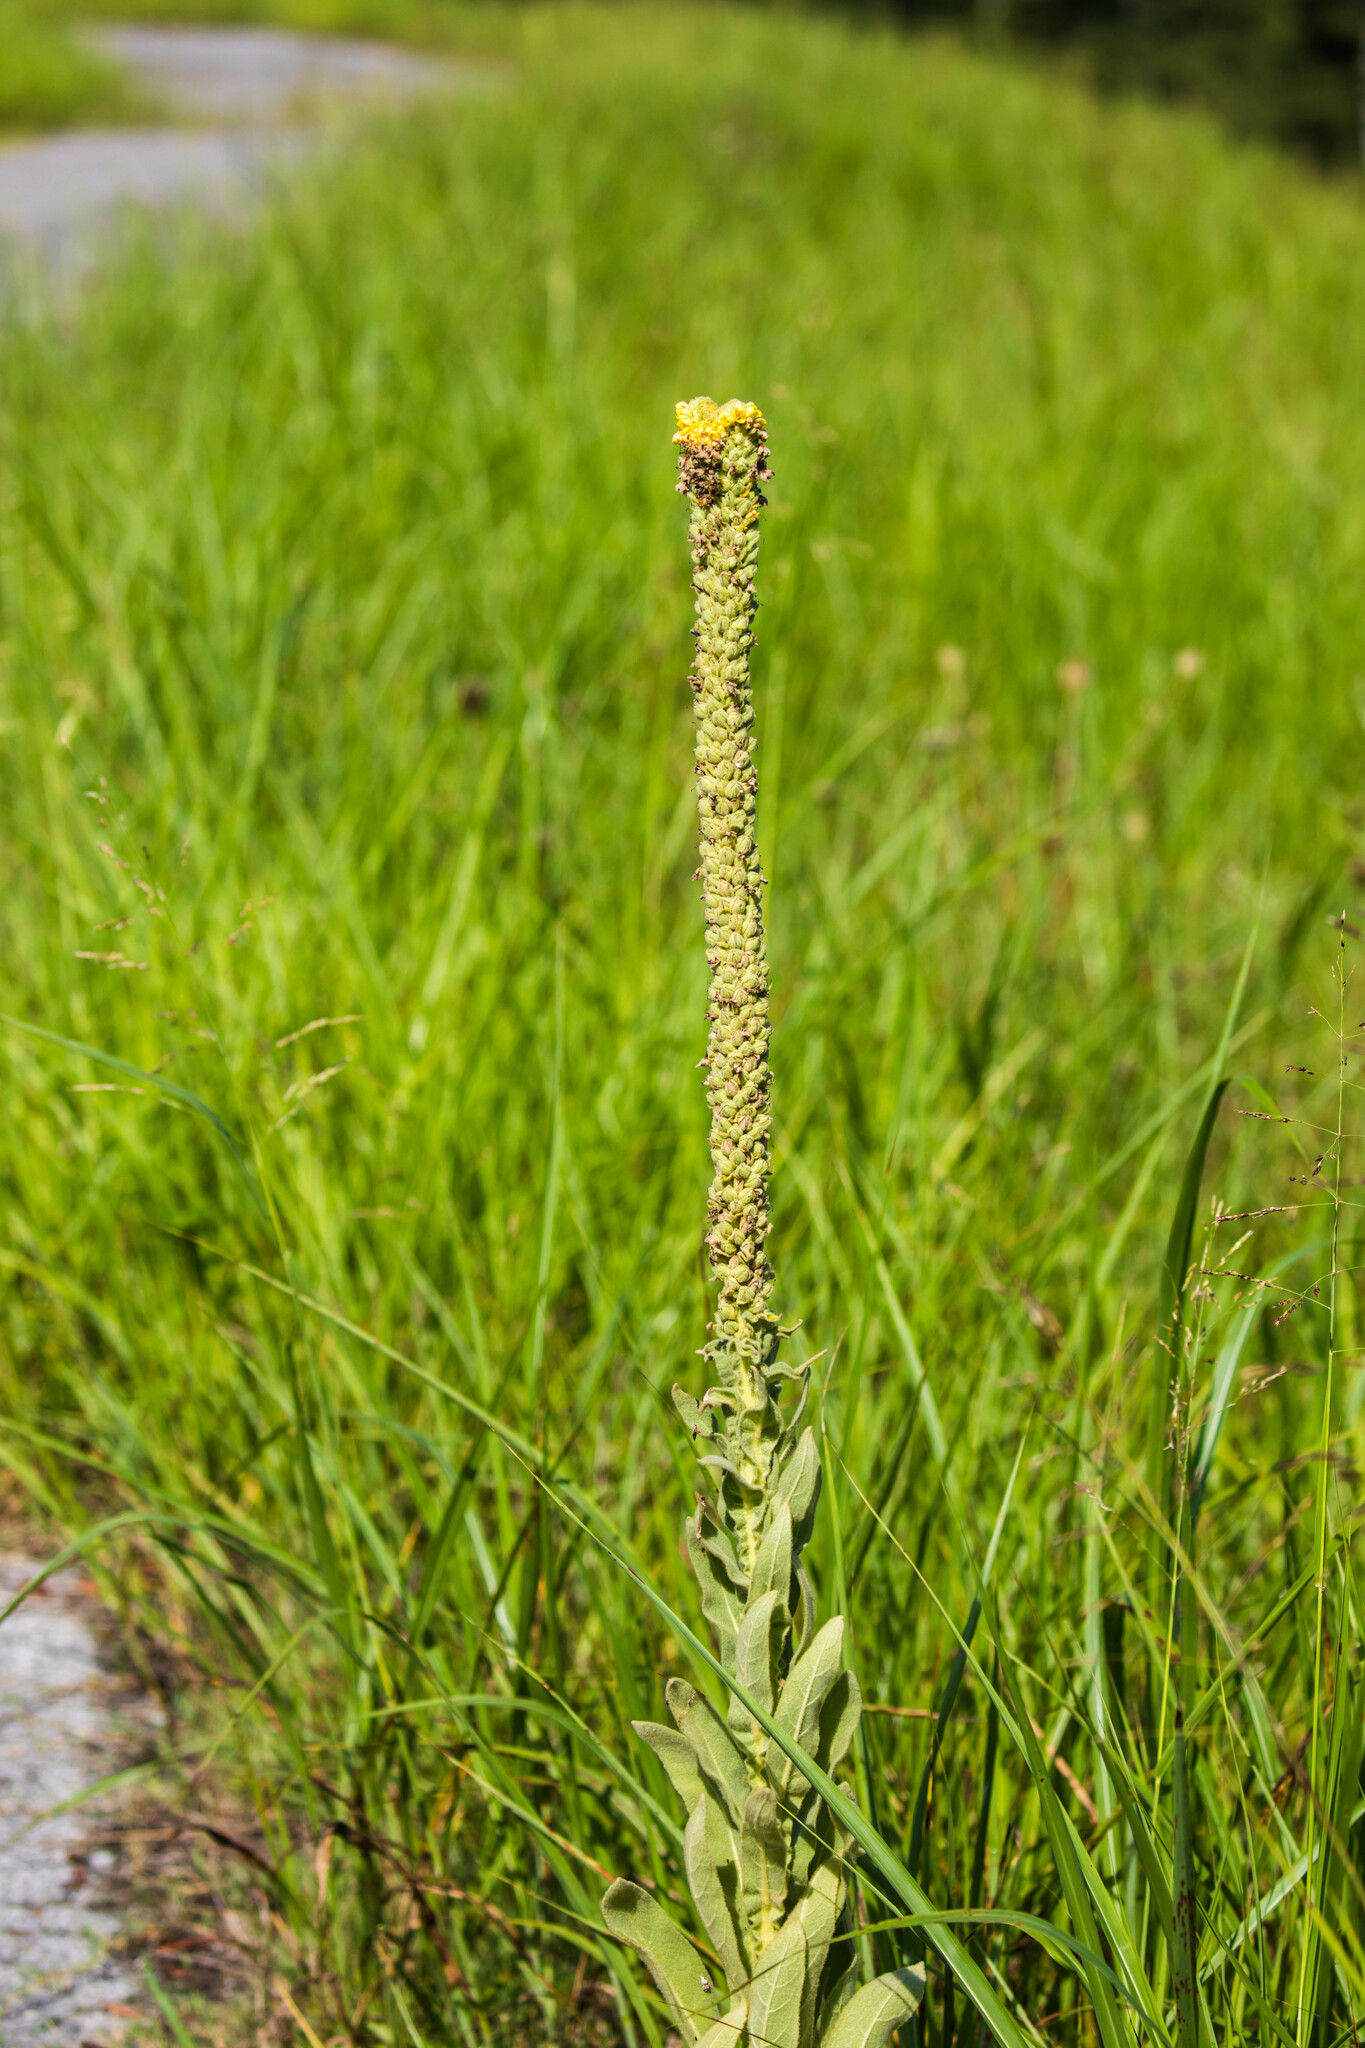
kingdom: Plantae
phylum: Tracheophyta
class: Magnoliopsida
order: Lamiales
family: Scrophulariaceae
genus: Verbascum
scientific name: Verbascum thapsus
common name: Common mullein
